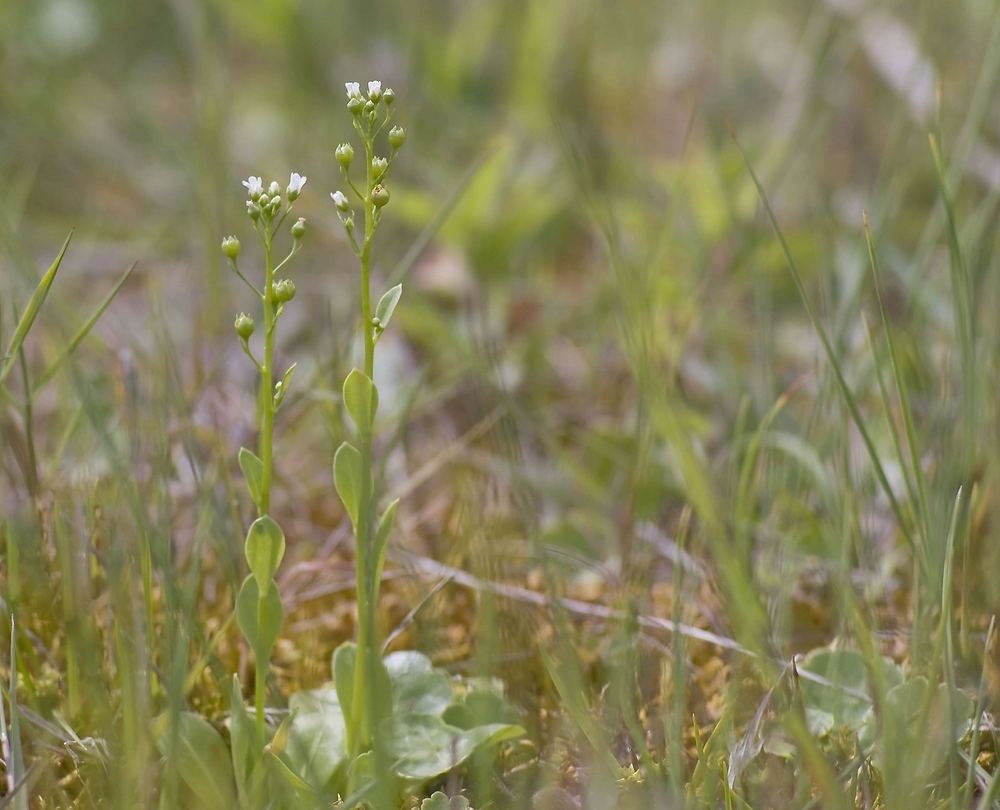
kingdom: Plantae
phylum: Tracheophyta
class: Magnoliopsida
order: Ericales
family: Primulaceae
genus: Samolus
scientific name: Samolus valerandi
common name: Brookweed
